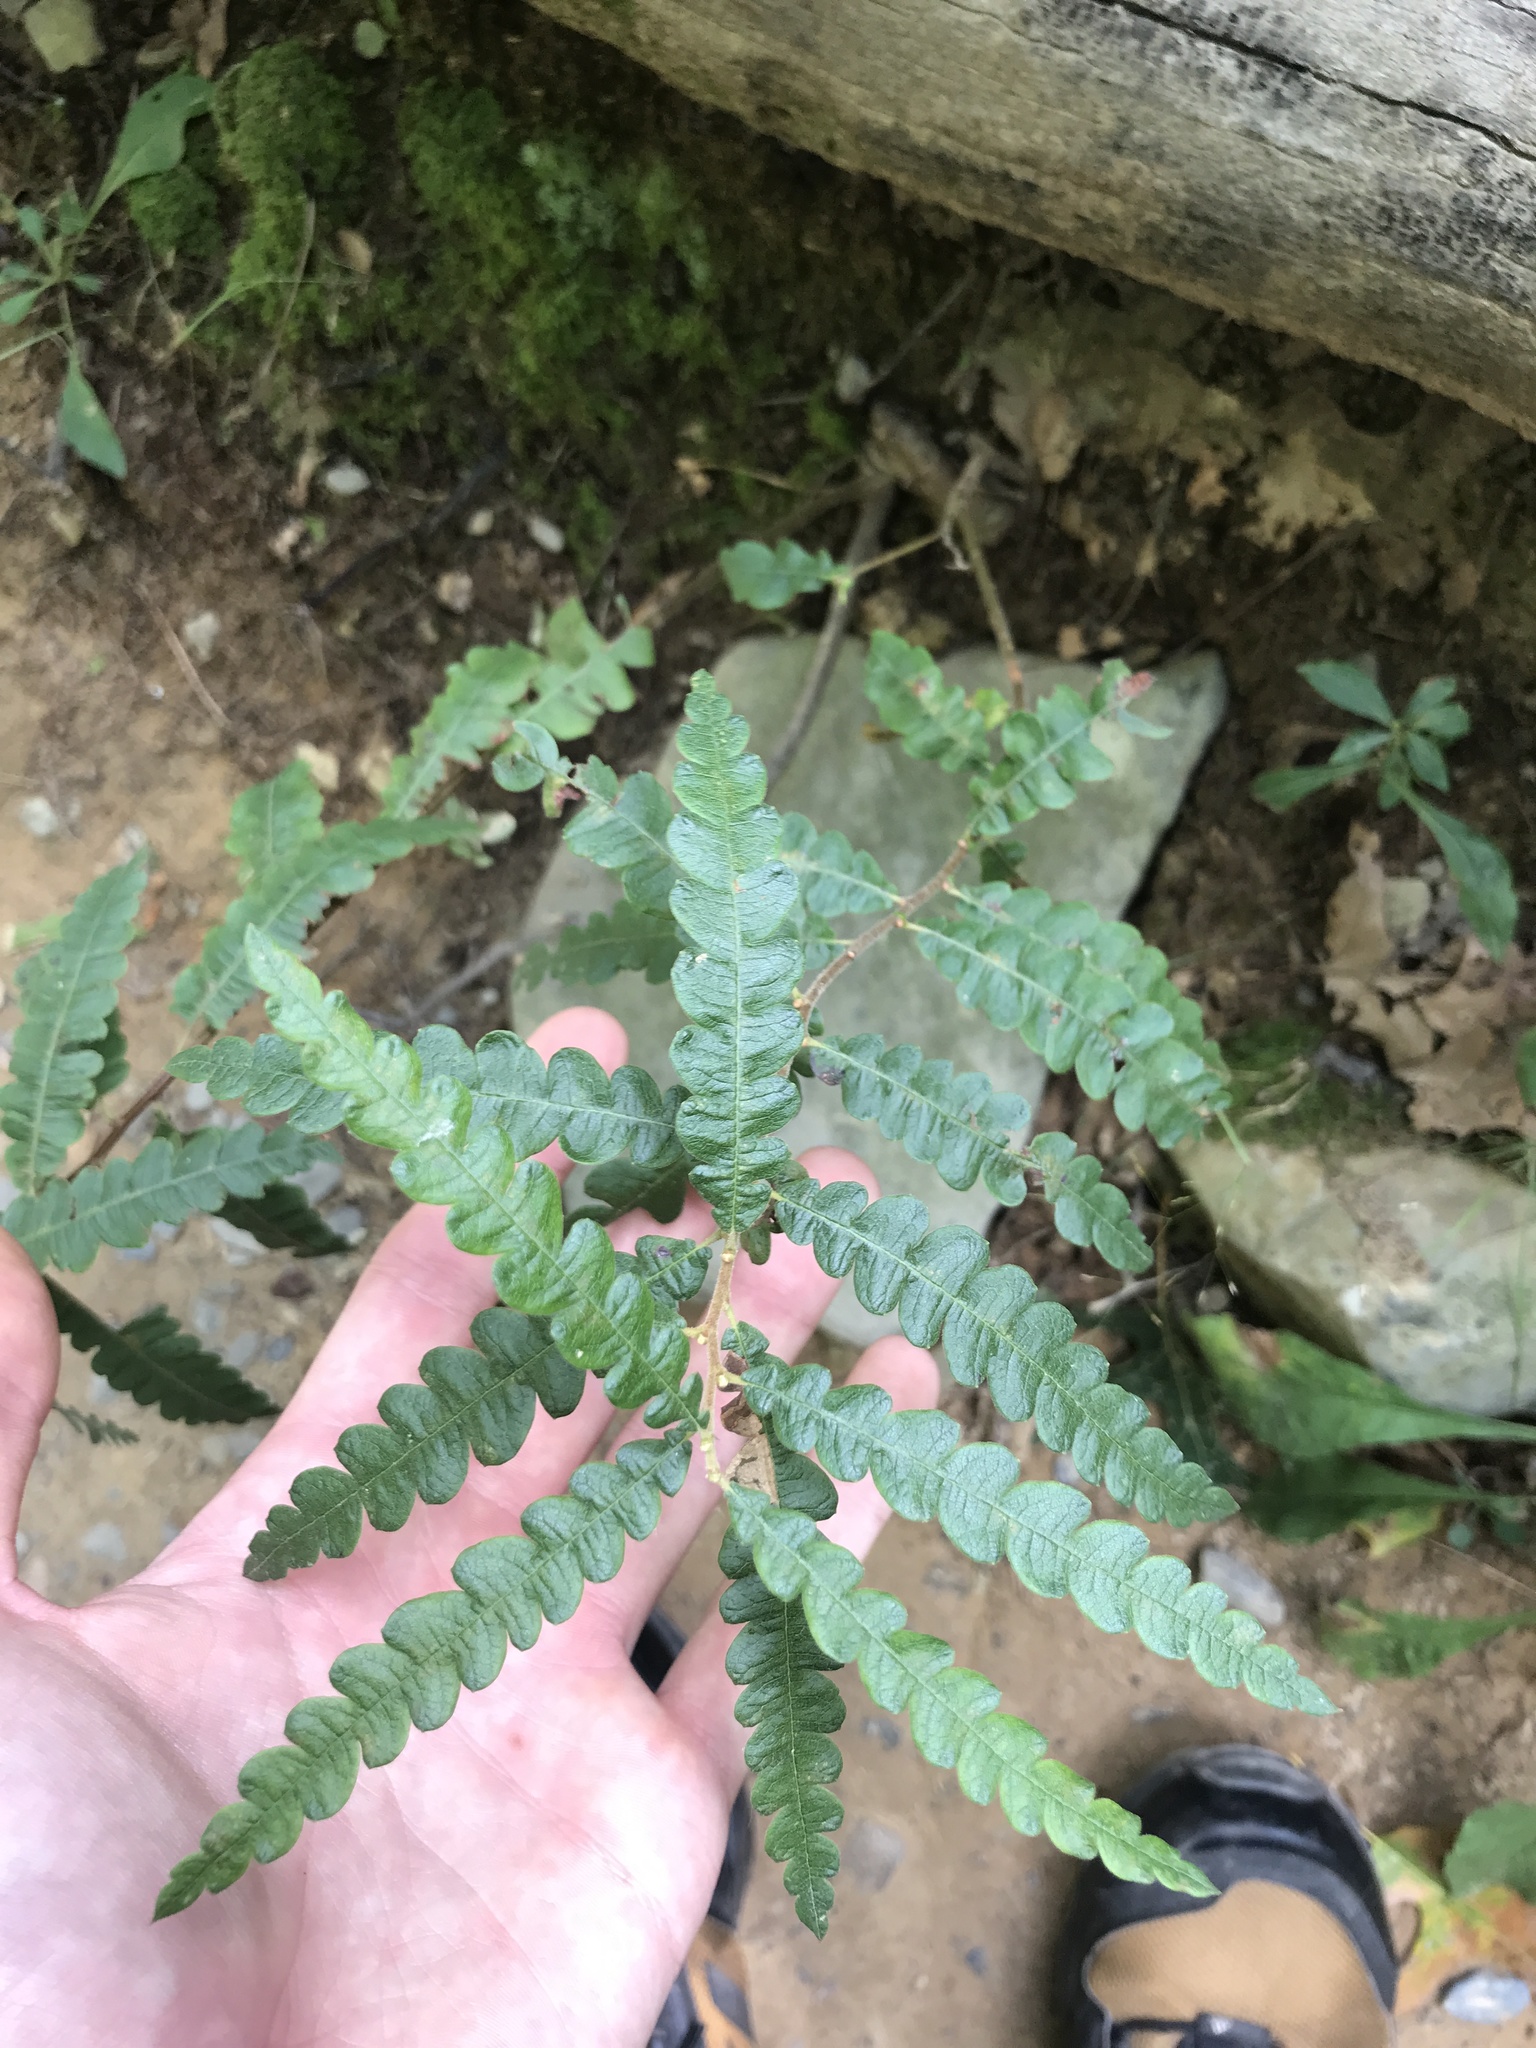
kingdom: Plantae
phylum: Tracheophyta
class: Magnoliopsida
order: Fagales
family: Myricaceae
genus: Comptonia
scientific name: Comptonia peregrina
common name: Sweet-fern
